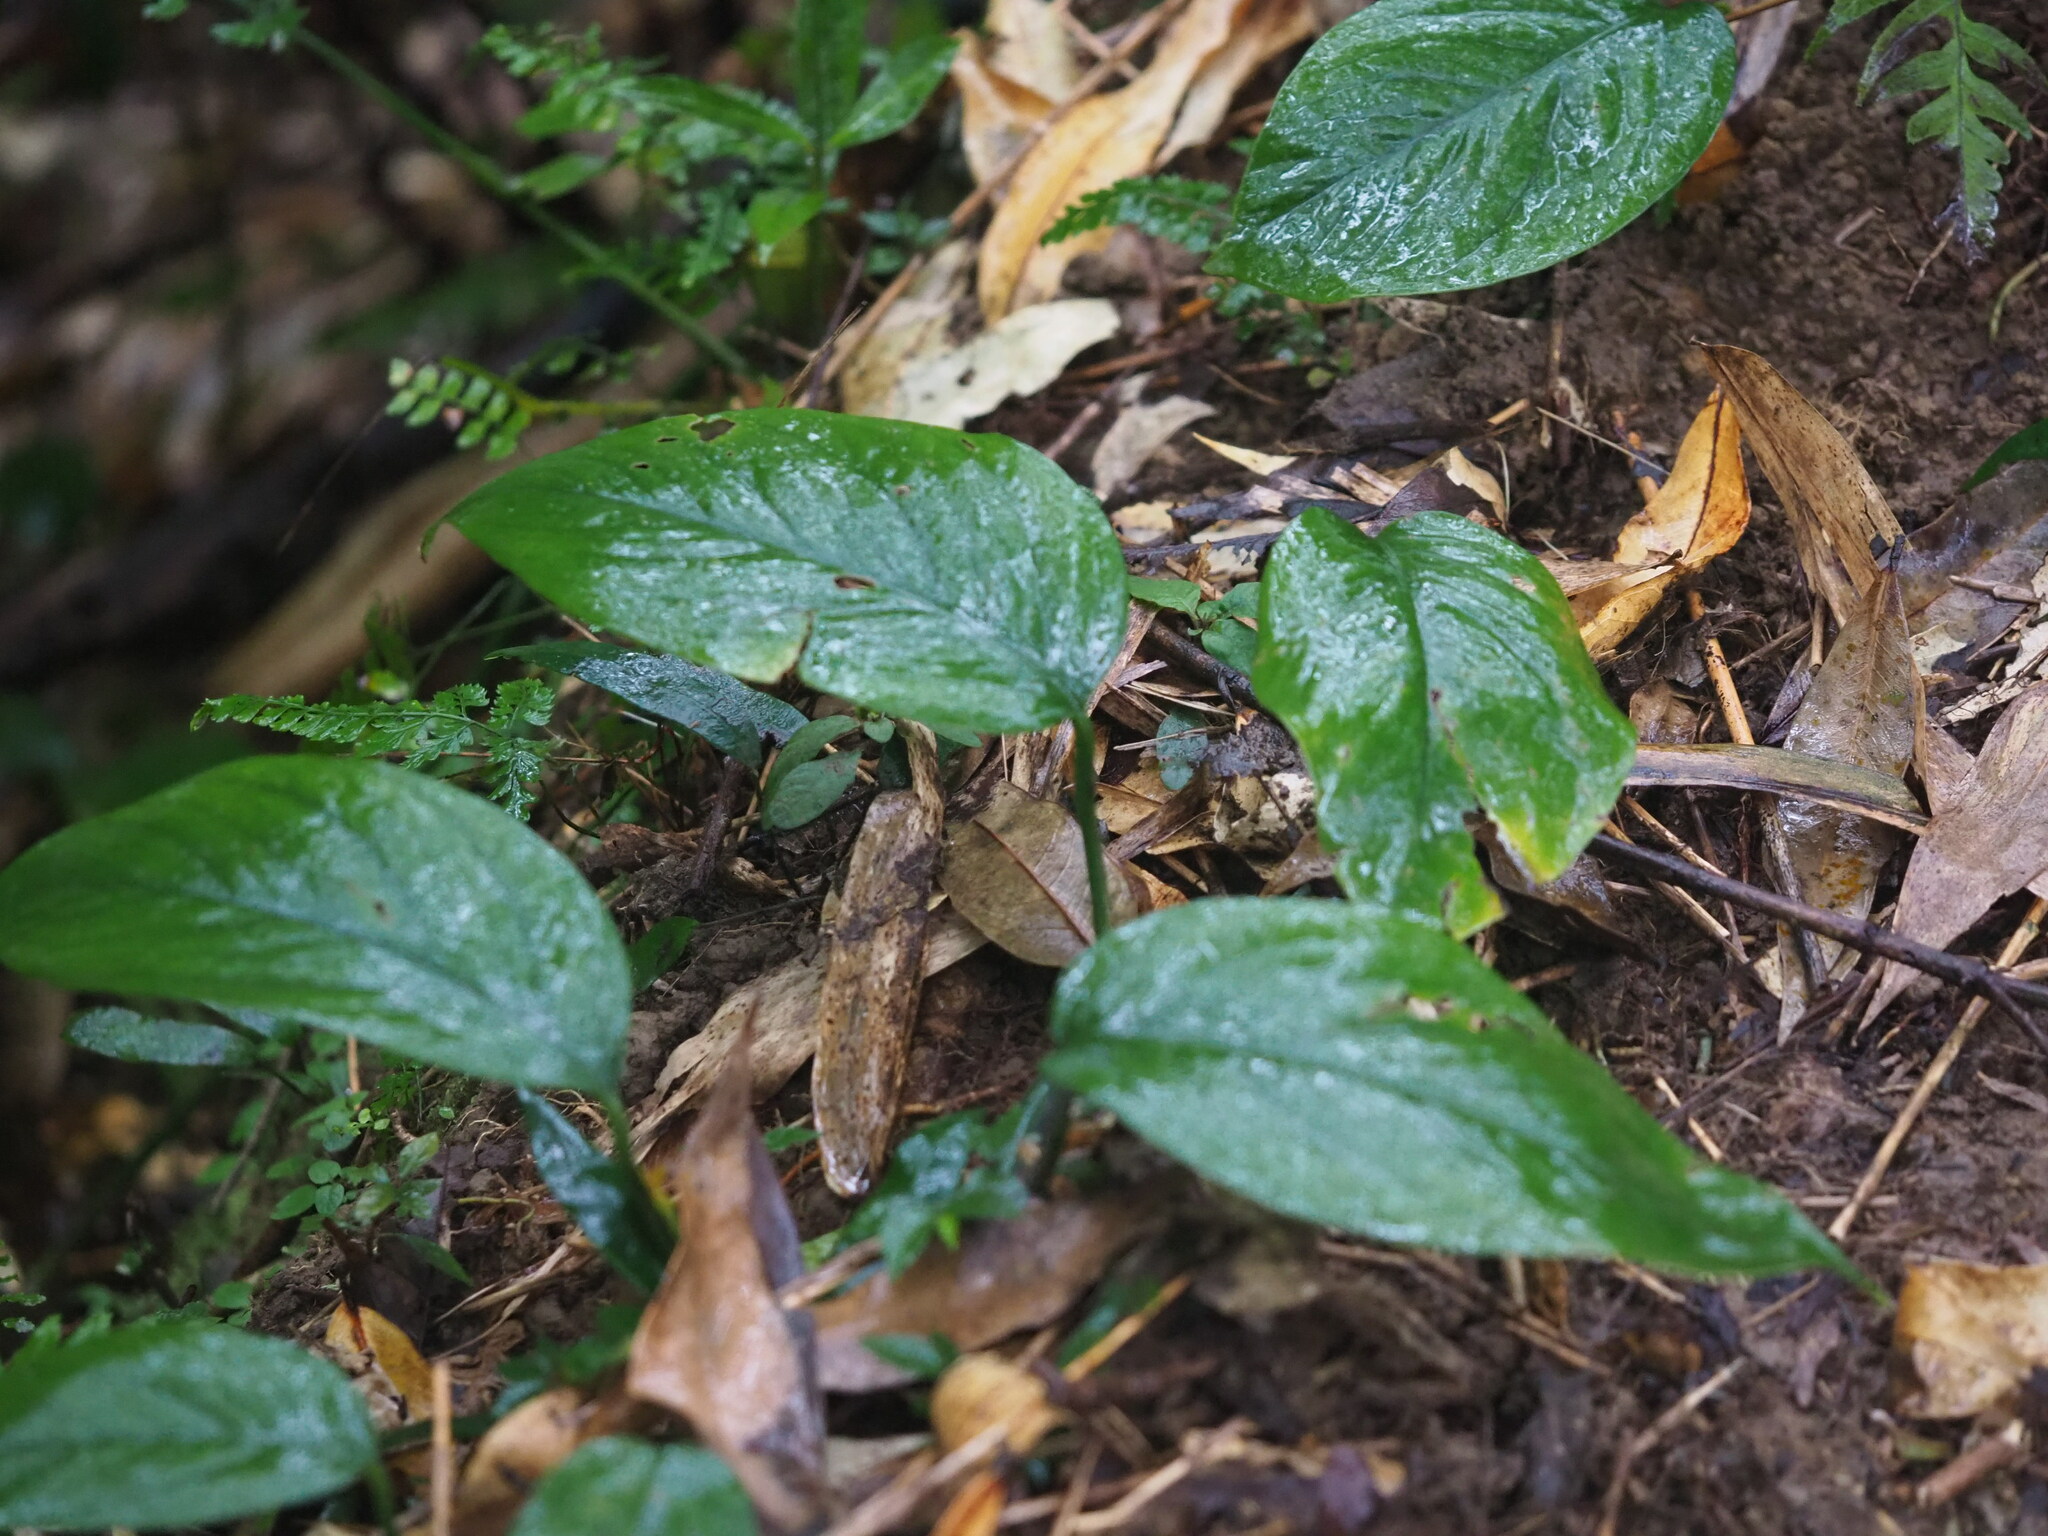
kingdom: Plantae
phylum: Tracheophyta
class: Liliopsida
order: Alismatales
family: Araceae
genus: Epipremnum
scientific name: Epipremnum pinnatum
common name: Centipede tongavine
